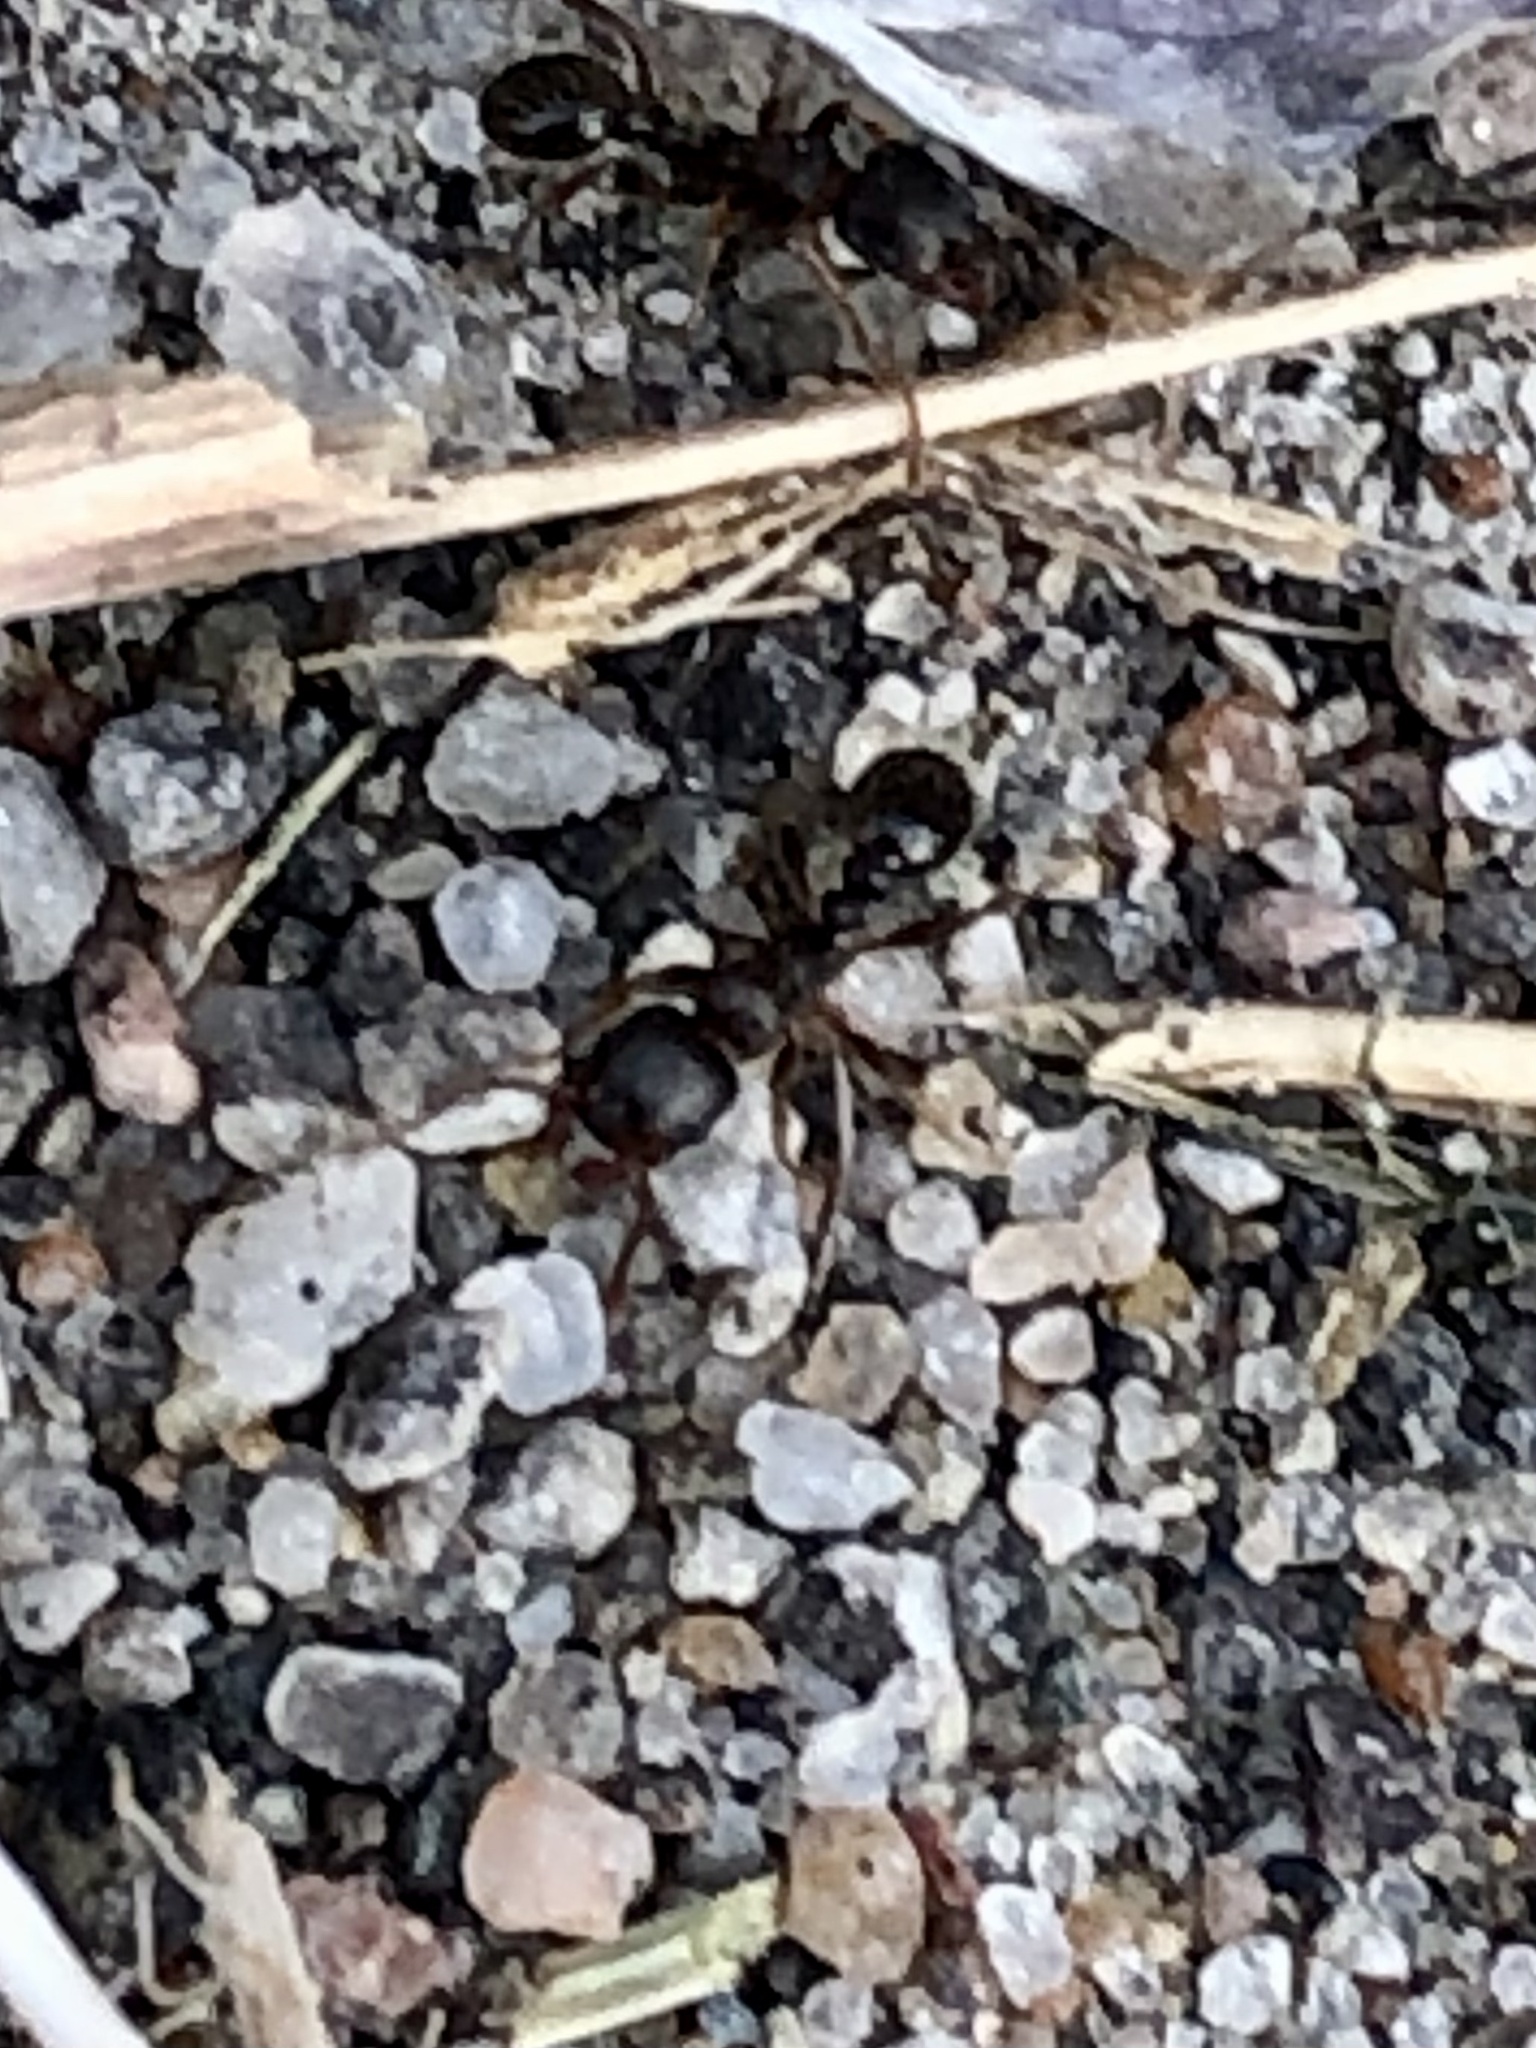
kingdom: Animalia
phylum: Arthropoda
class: Insecta
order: Hymenoptera
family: Formicidae
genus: Tetramorium
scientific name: Tetramorium immigrans
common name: Pavement ant
